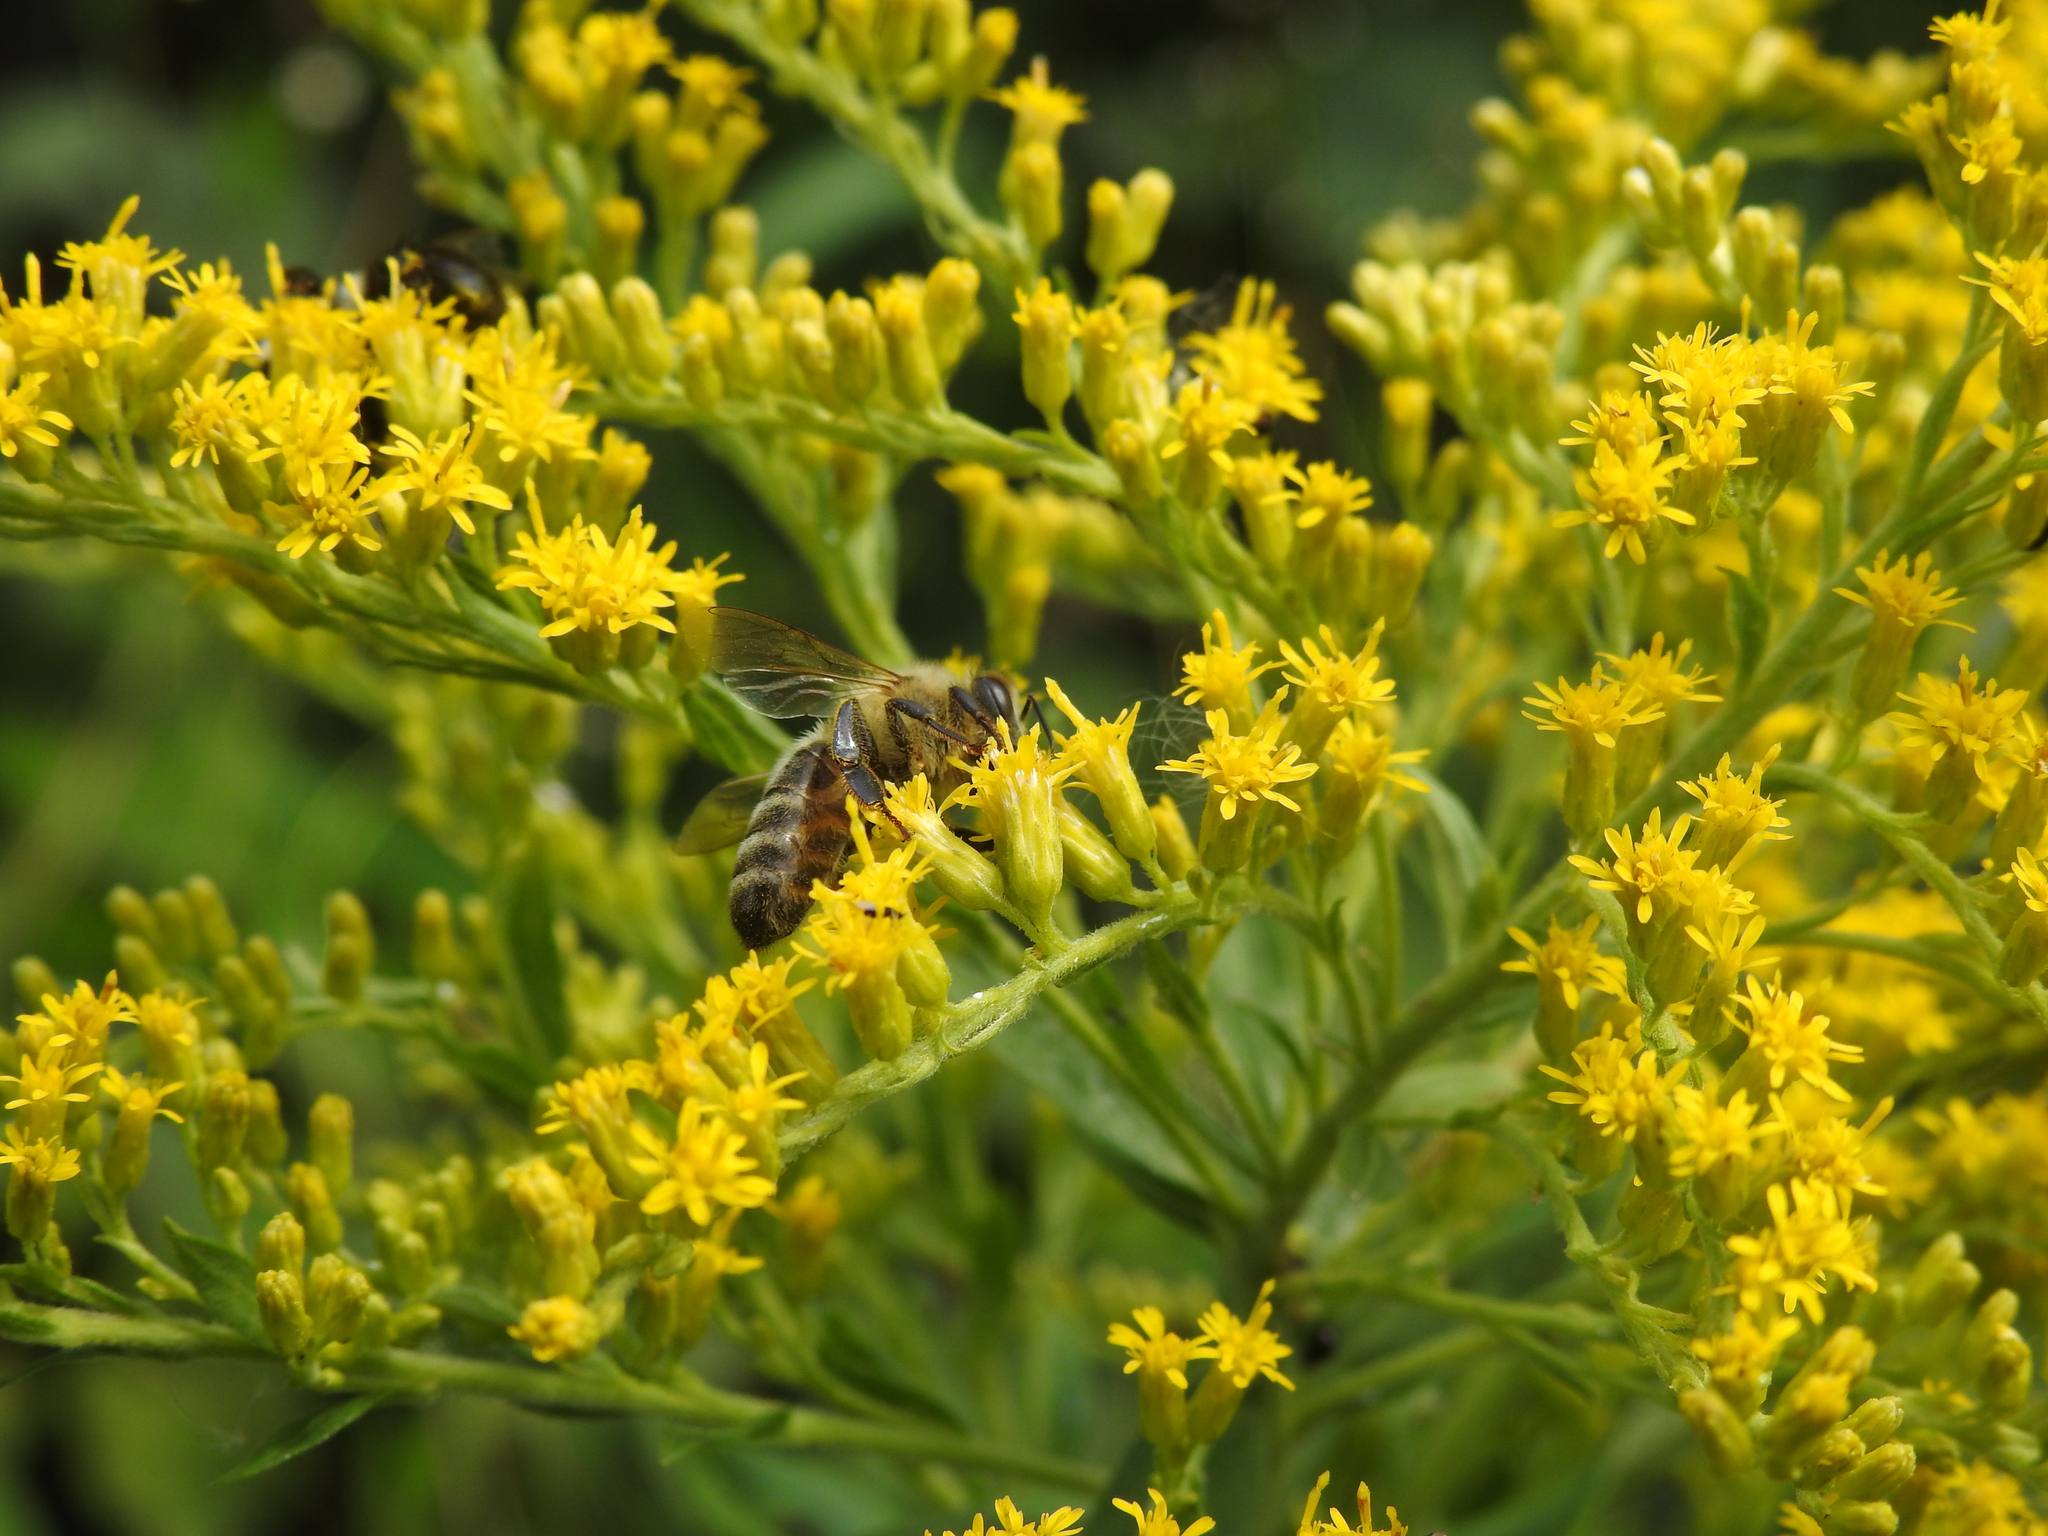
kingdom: Animalia
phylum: Arthropoda
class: Insecta
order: Hymenoptera
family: Apidae
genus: Apis
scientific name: Apis mellifera
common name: Honey bee
